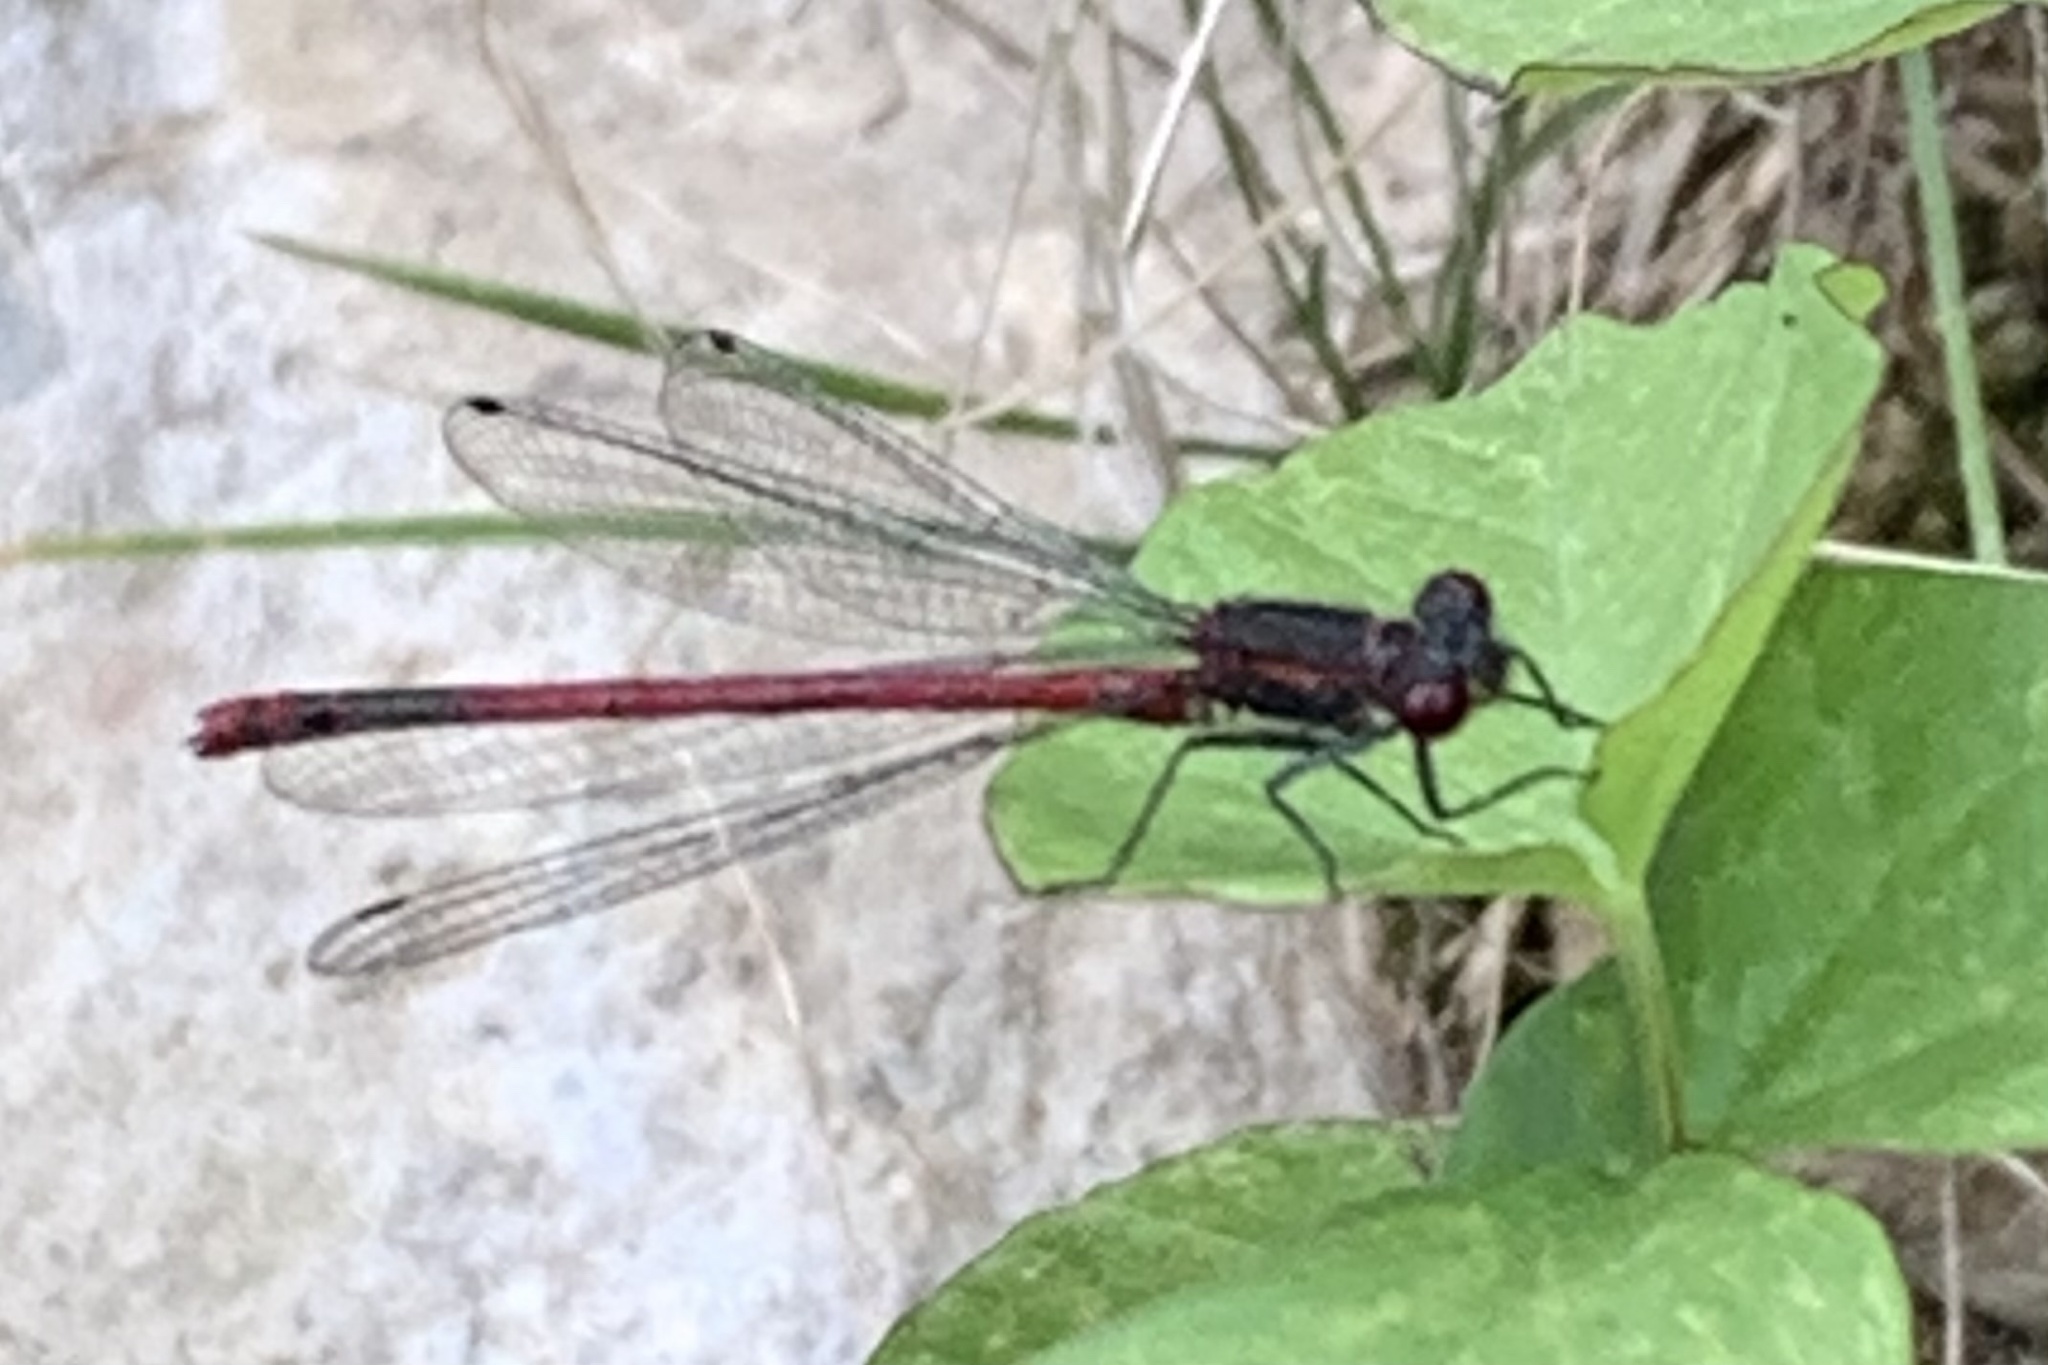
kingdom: Animalia
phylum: Arthropoda
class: Insecta
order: Odonata
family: Coenagrionidae
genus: Pyrrhosoma
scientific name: Pyrrhosoma nymphula
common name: Large red damsel
